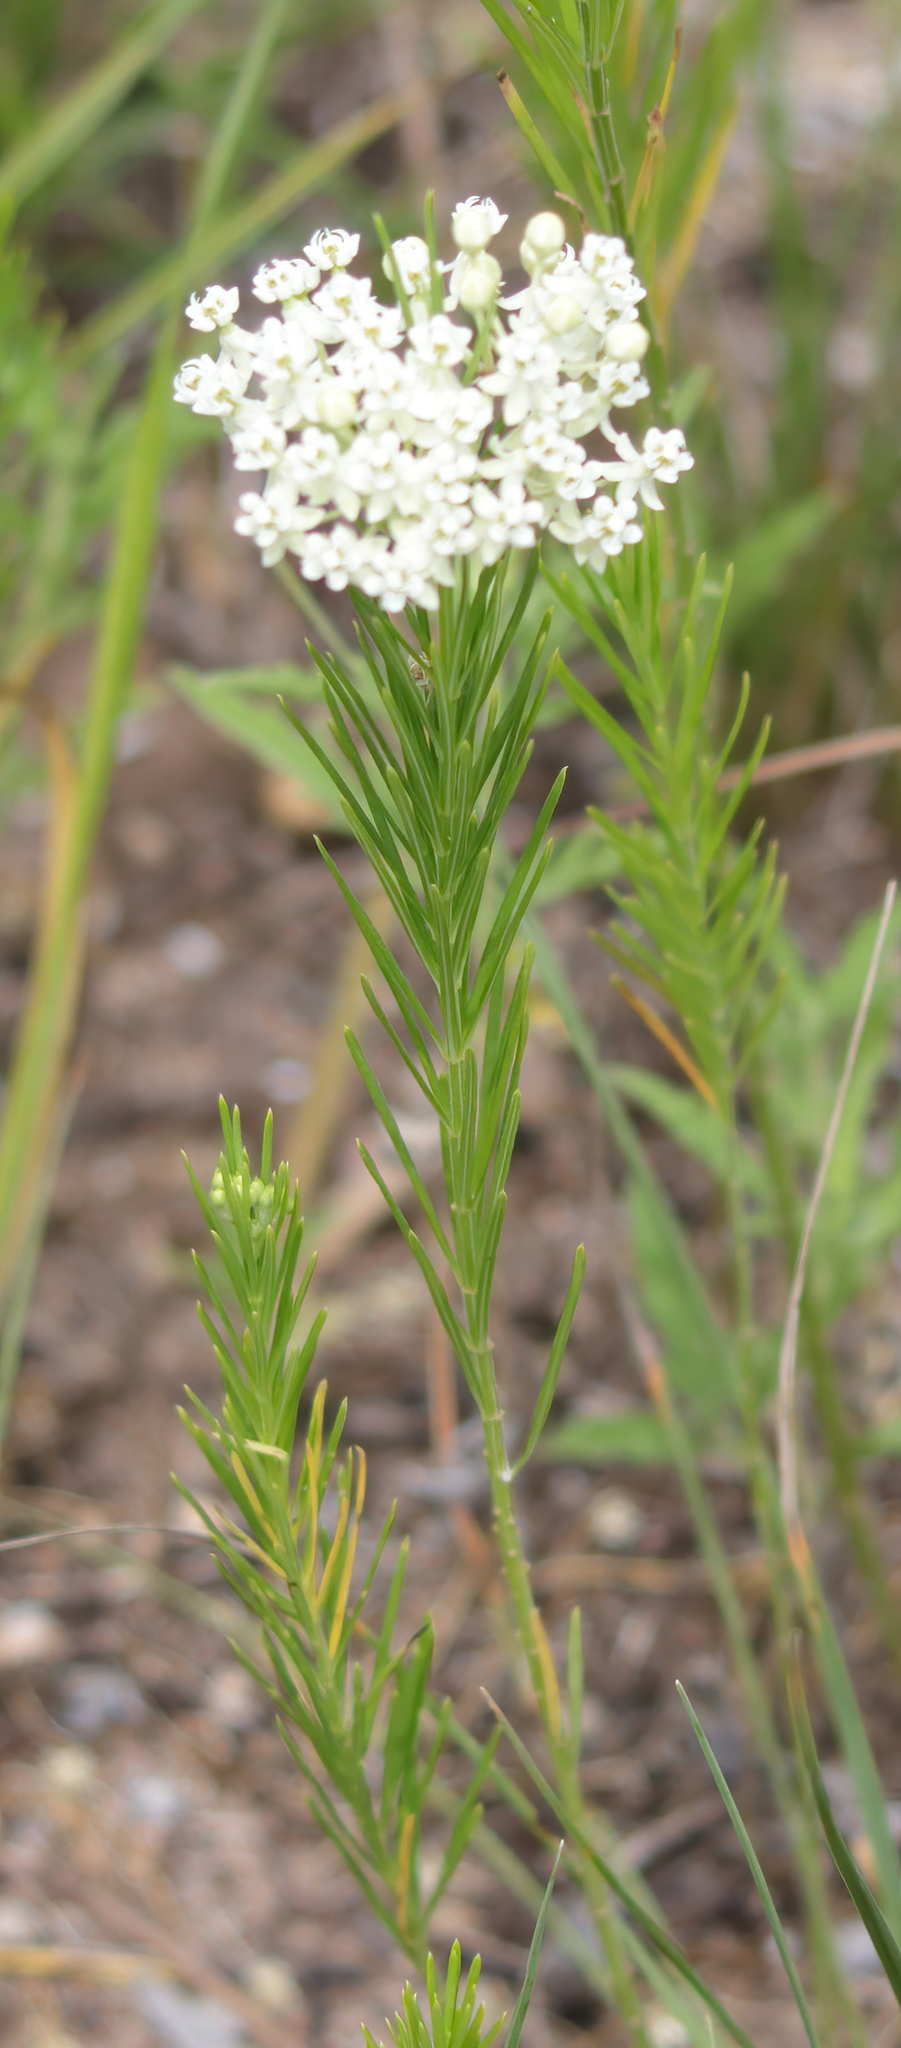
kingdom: Plantae
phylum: Tracheophyta
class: Magnoliopsida
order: Gentianales
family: Apocynaceae
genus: Asclepias
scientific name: Asclepias verticillata
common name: Eastern whorled milkweed
